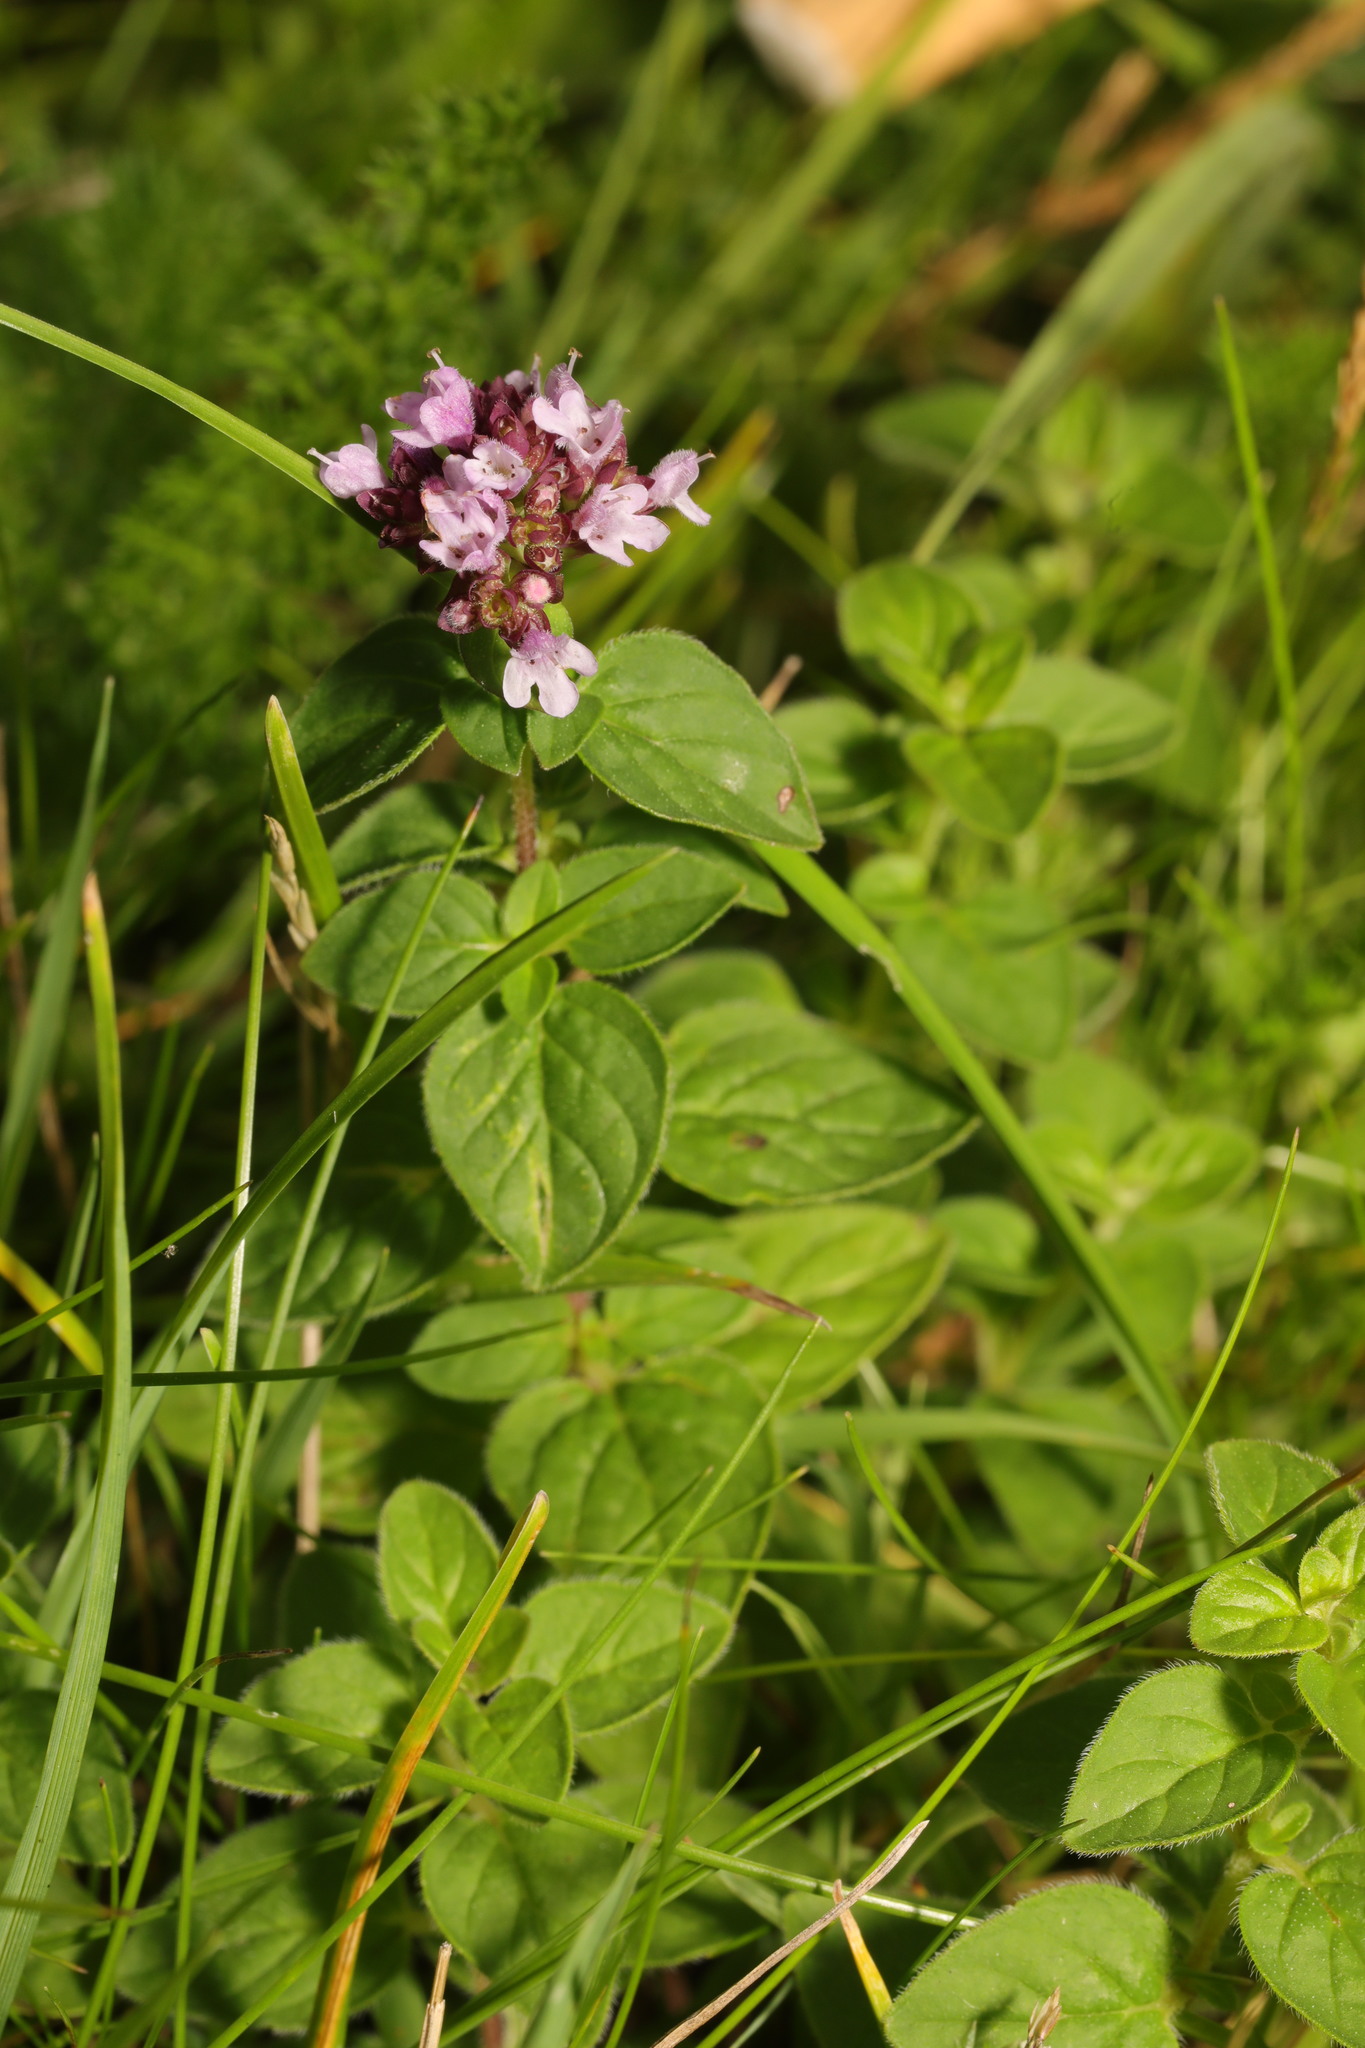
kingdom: Plantae
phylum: Tracheophyta
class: Magnoliopsida
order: Lamiales
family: Lamiaceae
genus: Origanum
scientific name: Origanum vulgare
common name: Wild marjoram
